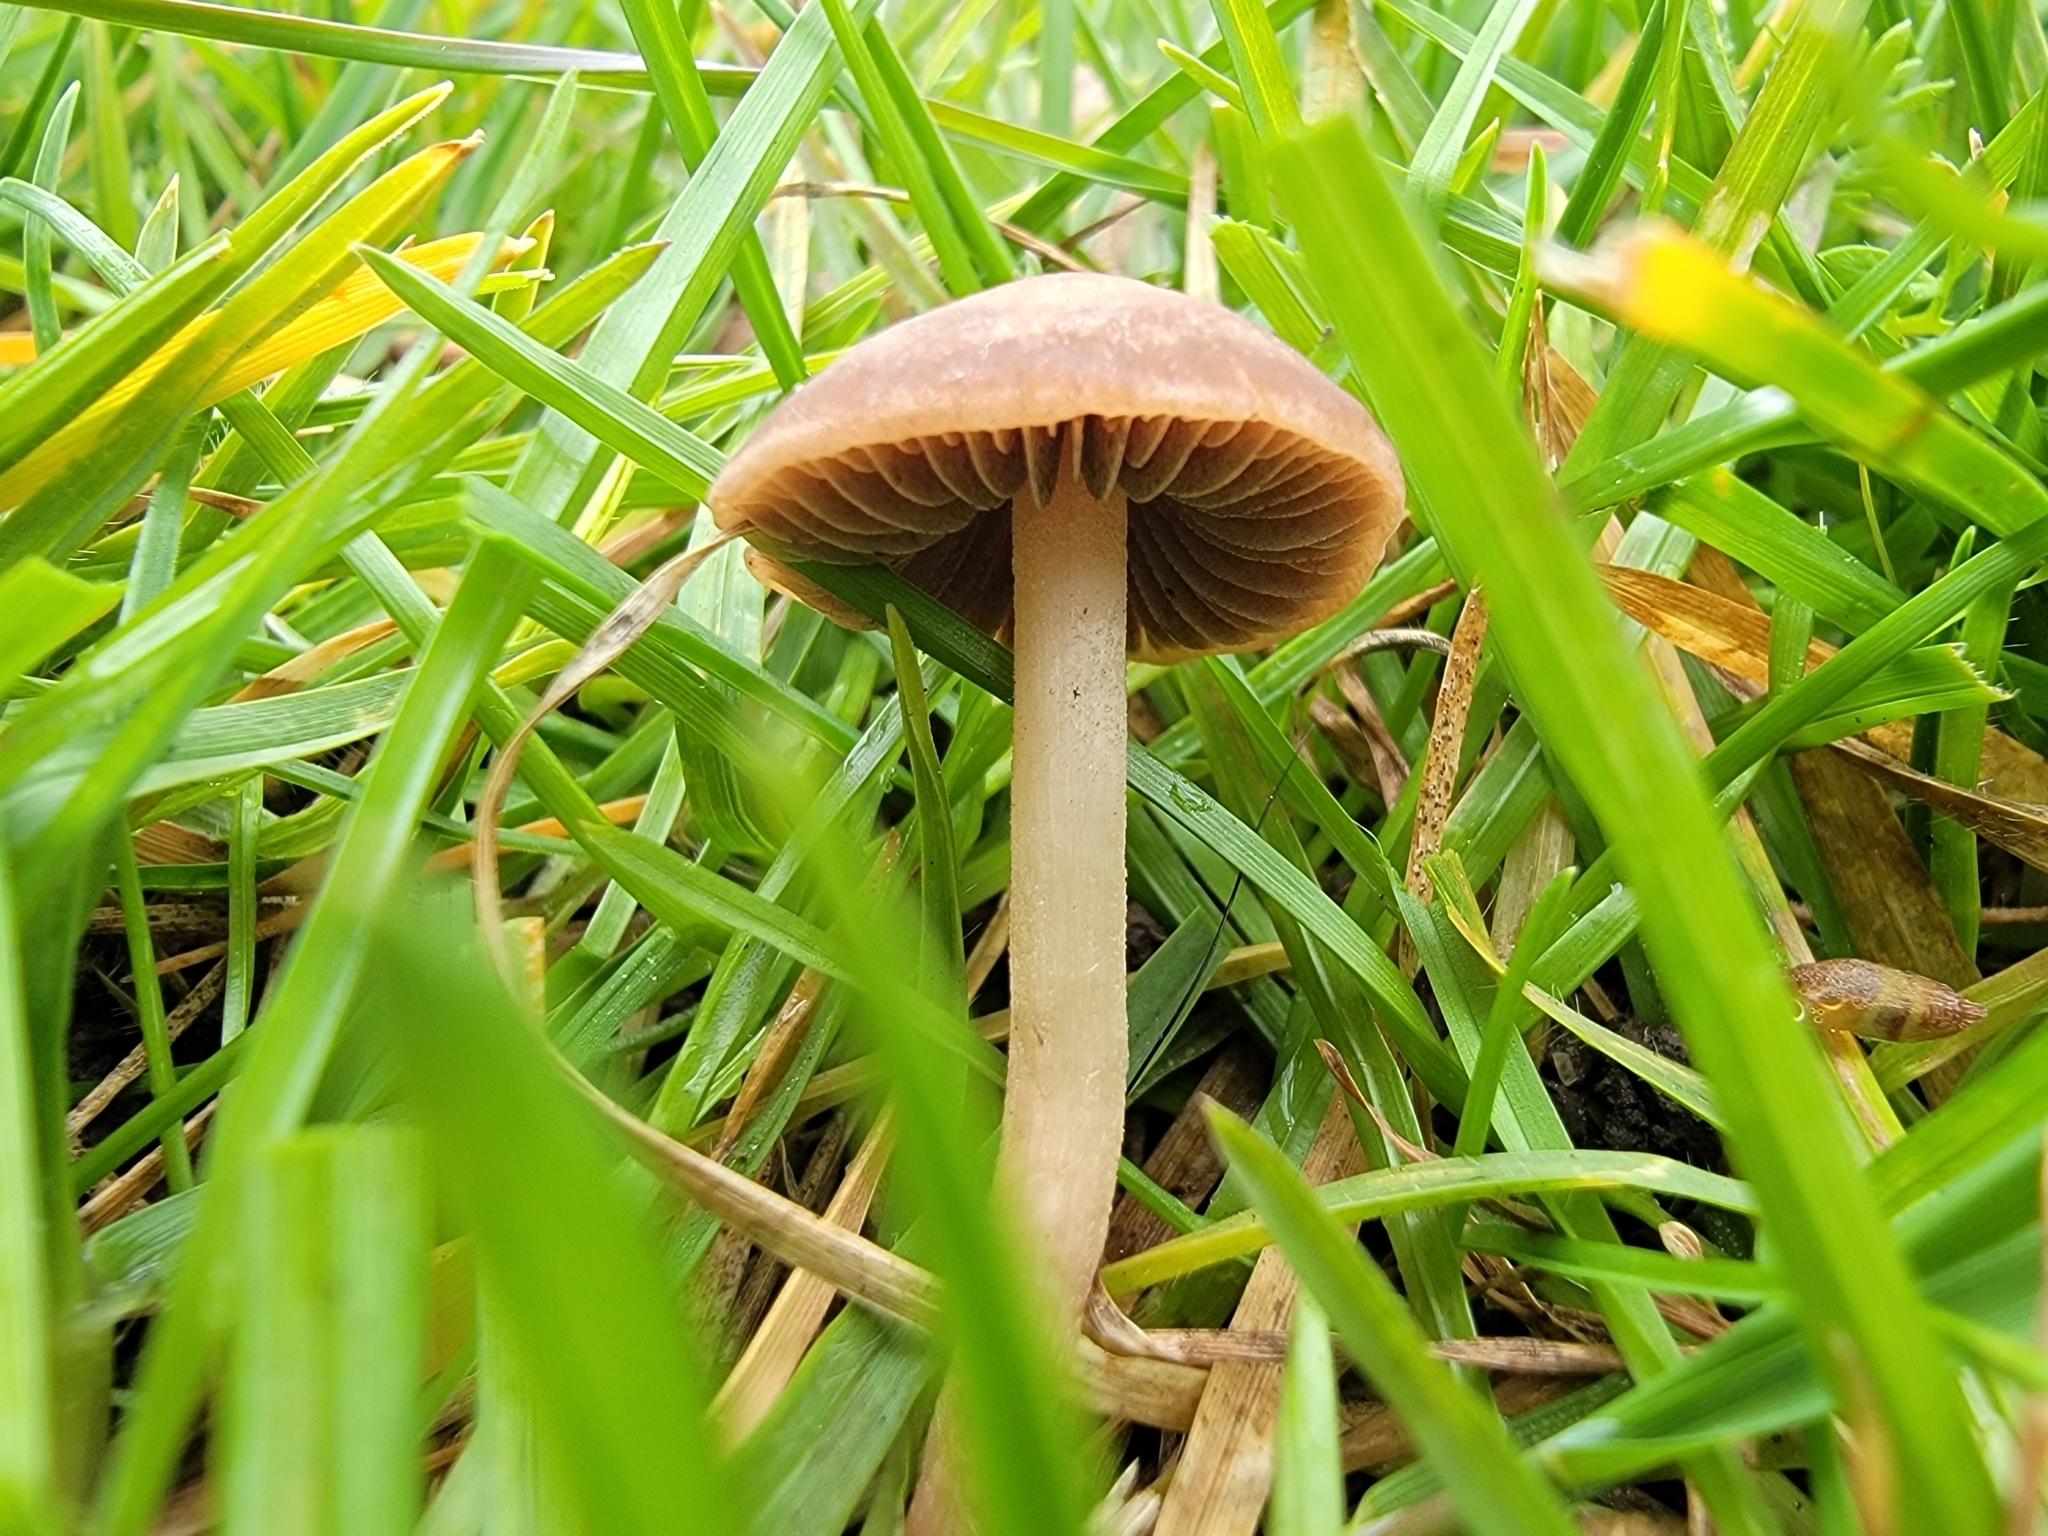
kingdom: Fungi
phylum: Basidiomycota
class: Agaricomycetes
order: Agaricales
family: Bolbitiaceae
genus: Panaeolina
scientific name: Panaeolina foenisecii
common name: Brown hay cap
